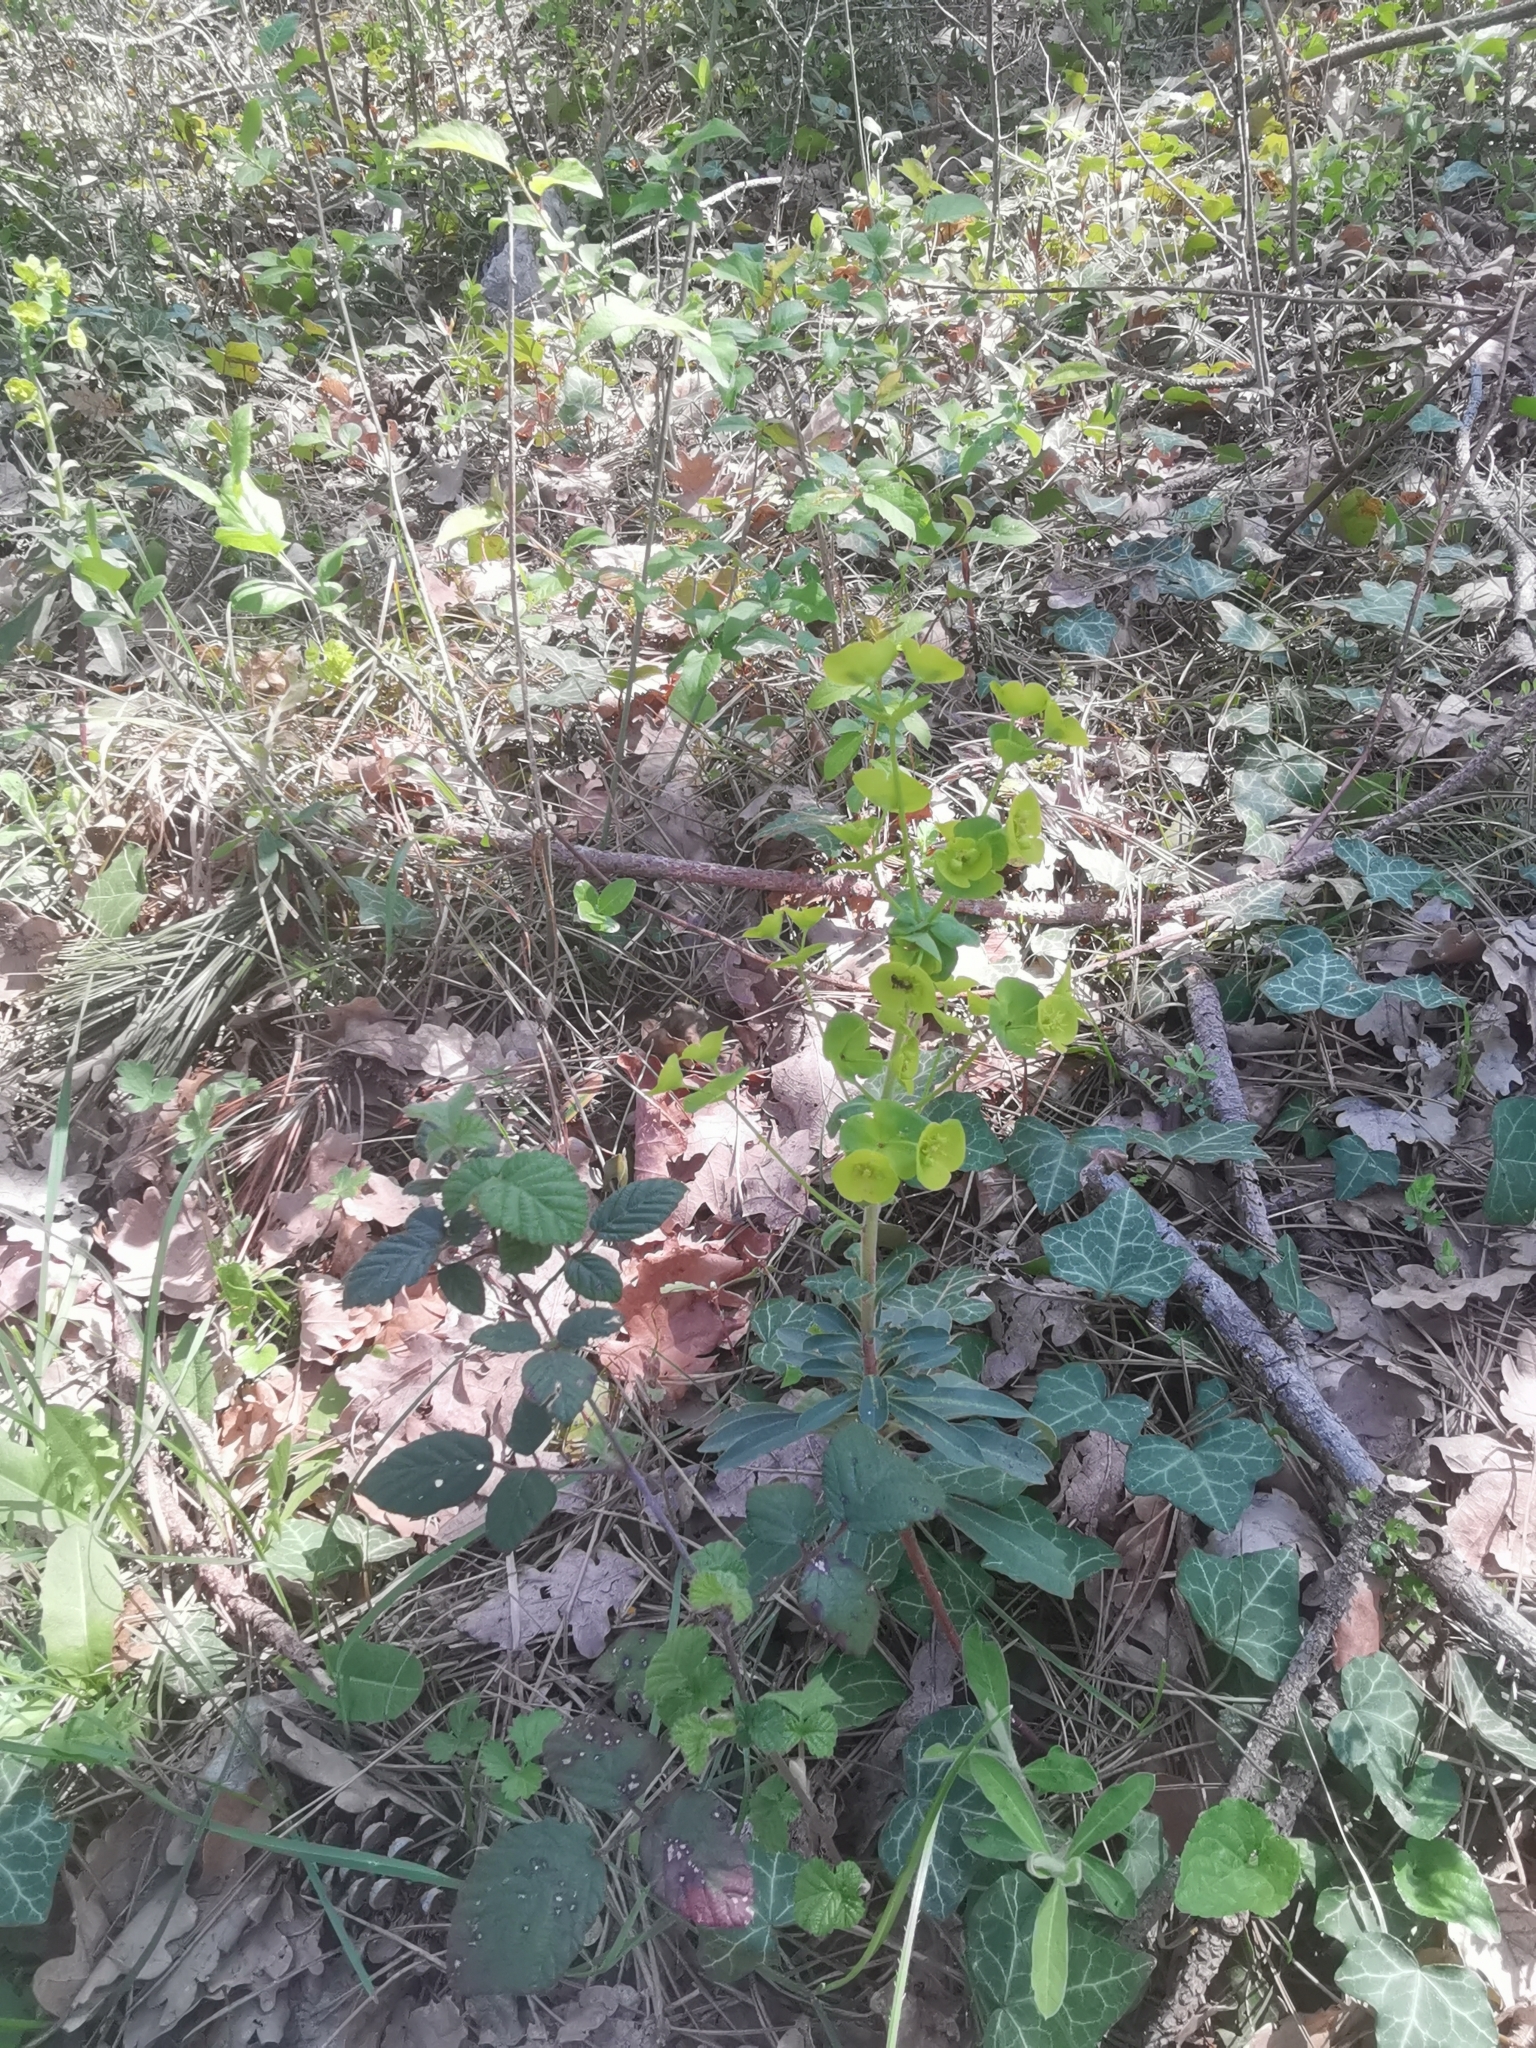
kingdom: Plantae
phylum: Tracheophyta
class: Magnoliopsida
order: Malpighiales
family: Euphorbiaceae
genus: Euphorbia
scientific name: Euphorbia amygdaloides
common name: Wood spurge
